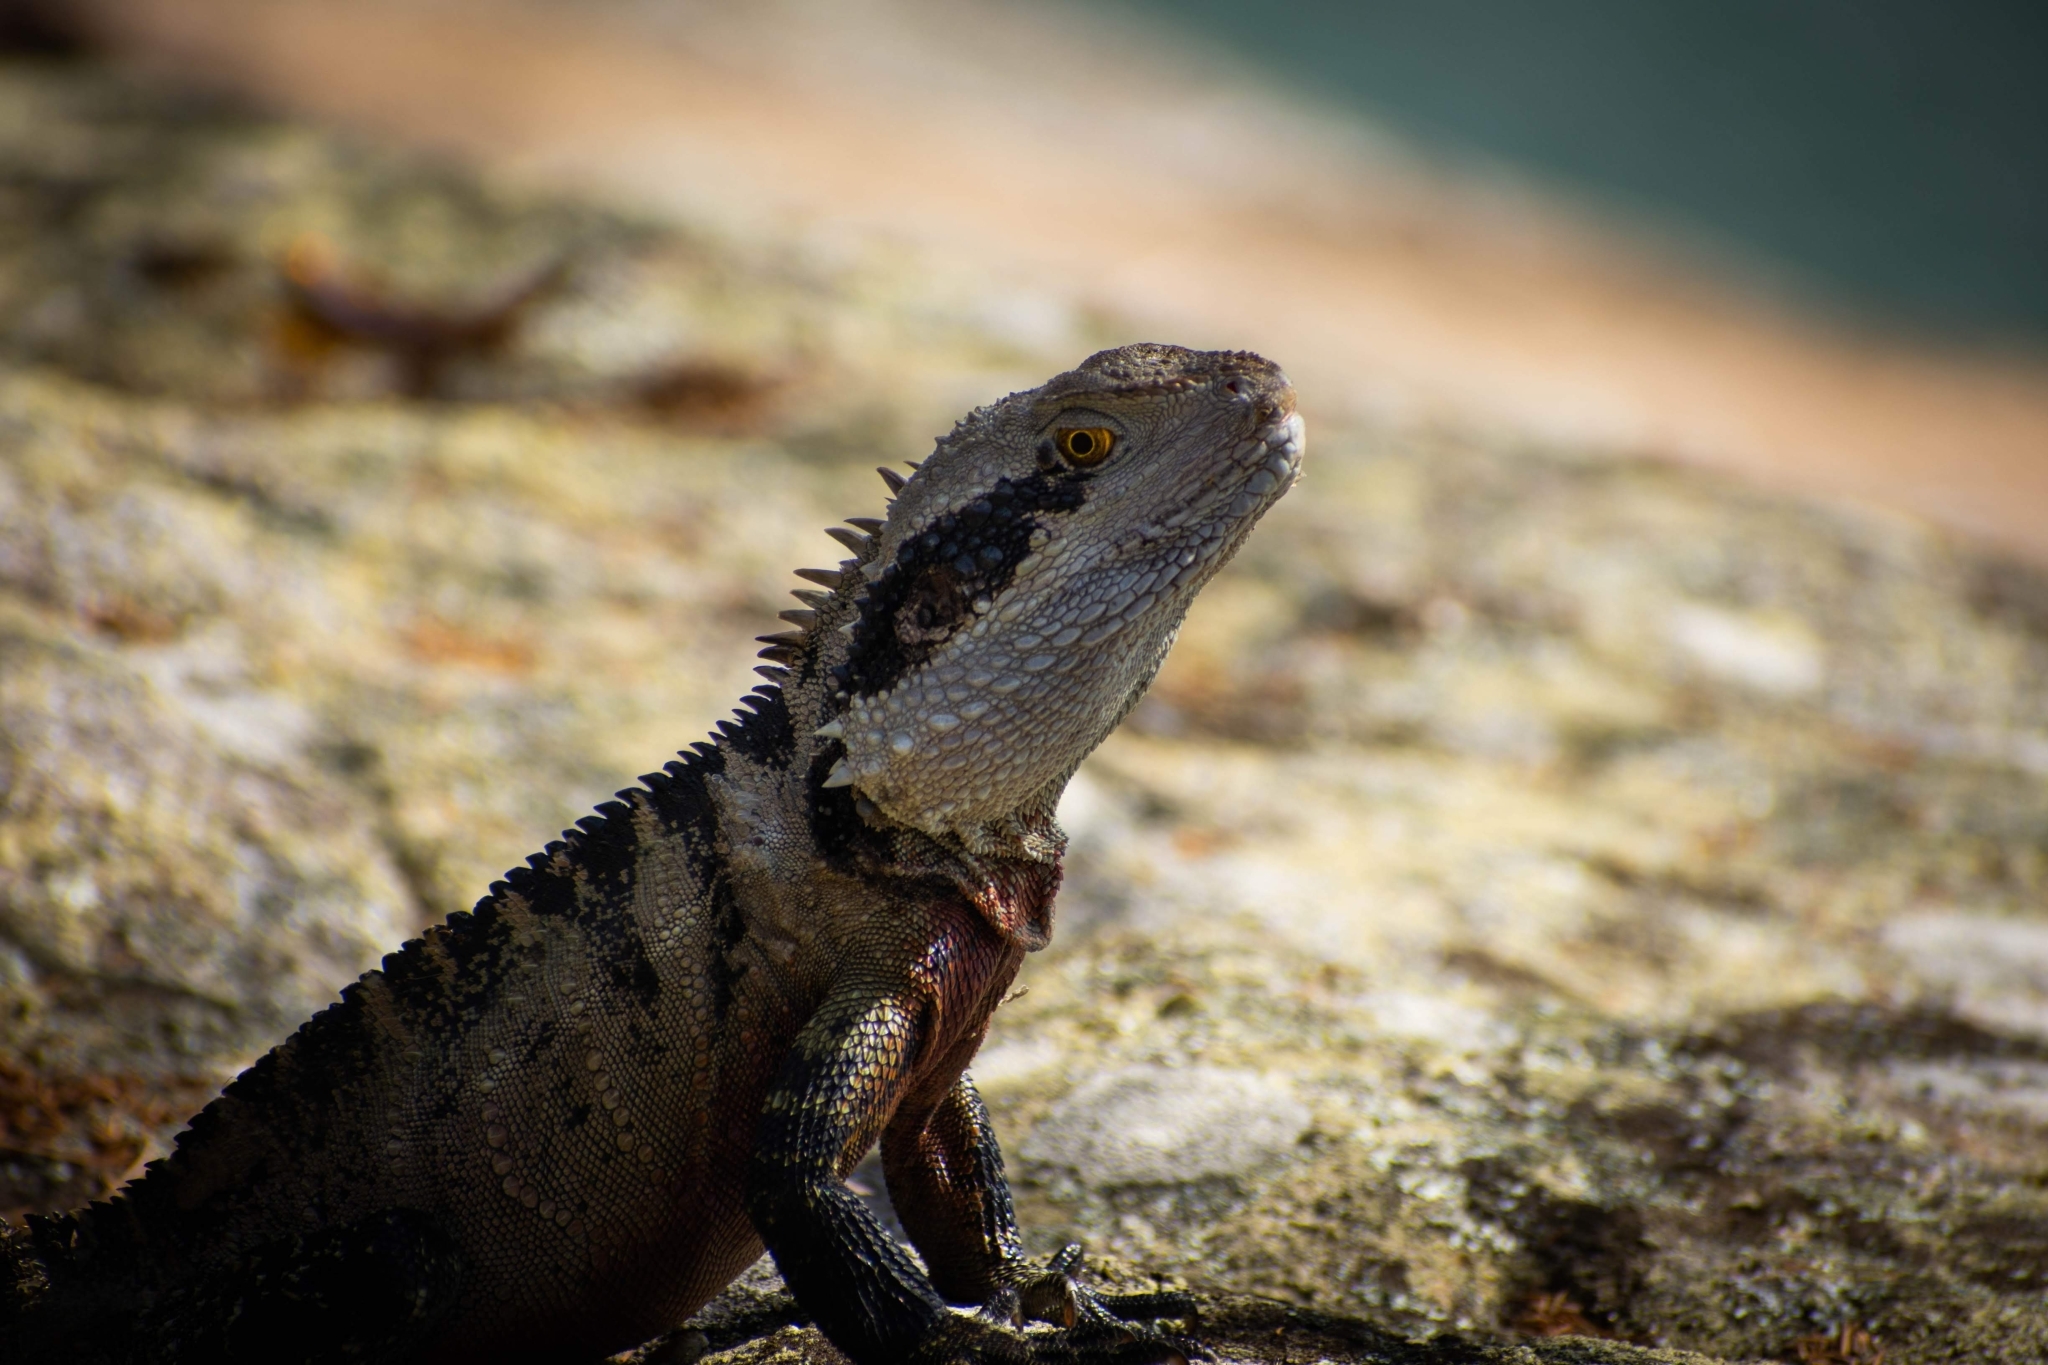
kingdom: Animalia
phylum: Chordata
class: Squamata
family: Agamidae
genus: Intellagama
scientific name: Intellagama lesueurii
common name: Eastern water dragon
